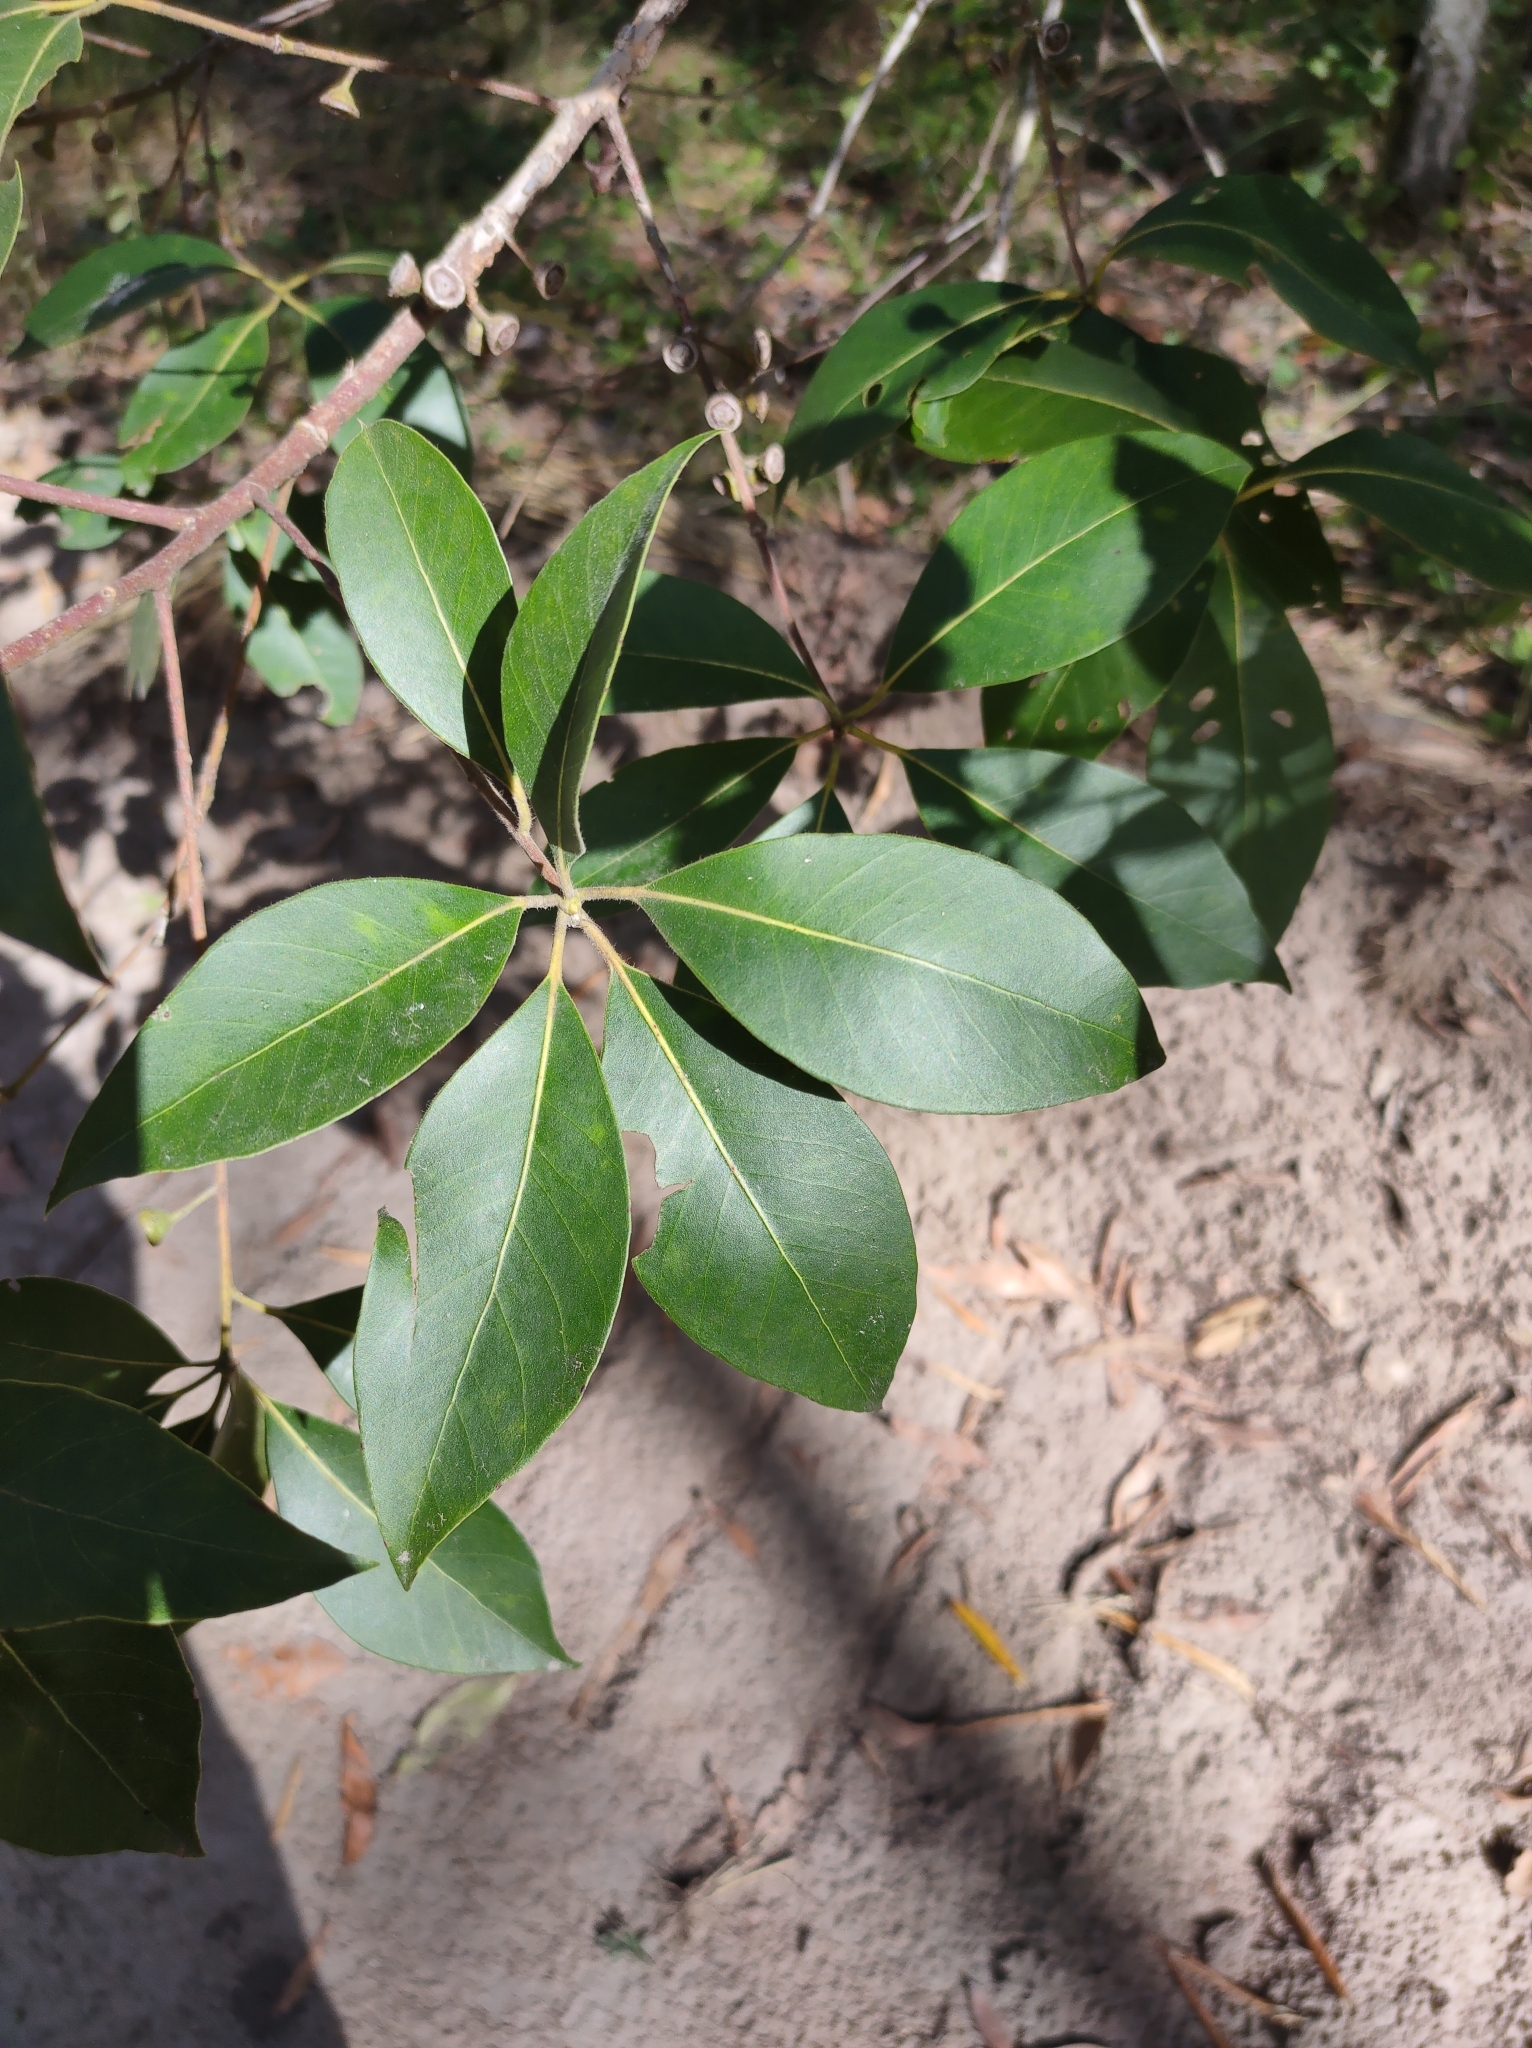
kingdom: Plantae
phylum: Tracheophyta
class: Magnoliopsida
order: Myrtales
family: Myrtaceae
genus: Lophostemon
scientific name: Lophostemon confertus
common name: Brisbane box
